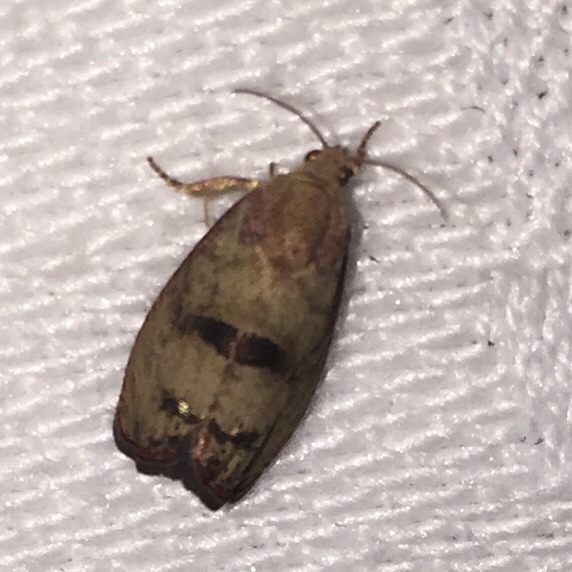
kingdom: Animalia
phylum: Arthropoda
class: Insecta
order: Lepidoptera
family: Tortricidae
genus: Cydia
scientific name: Cydia latiferreana
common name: Filbertworm moth
